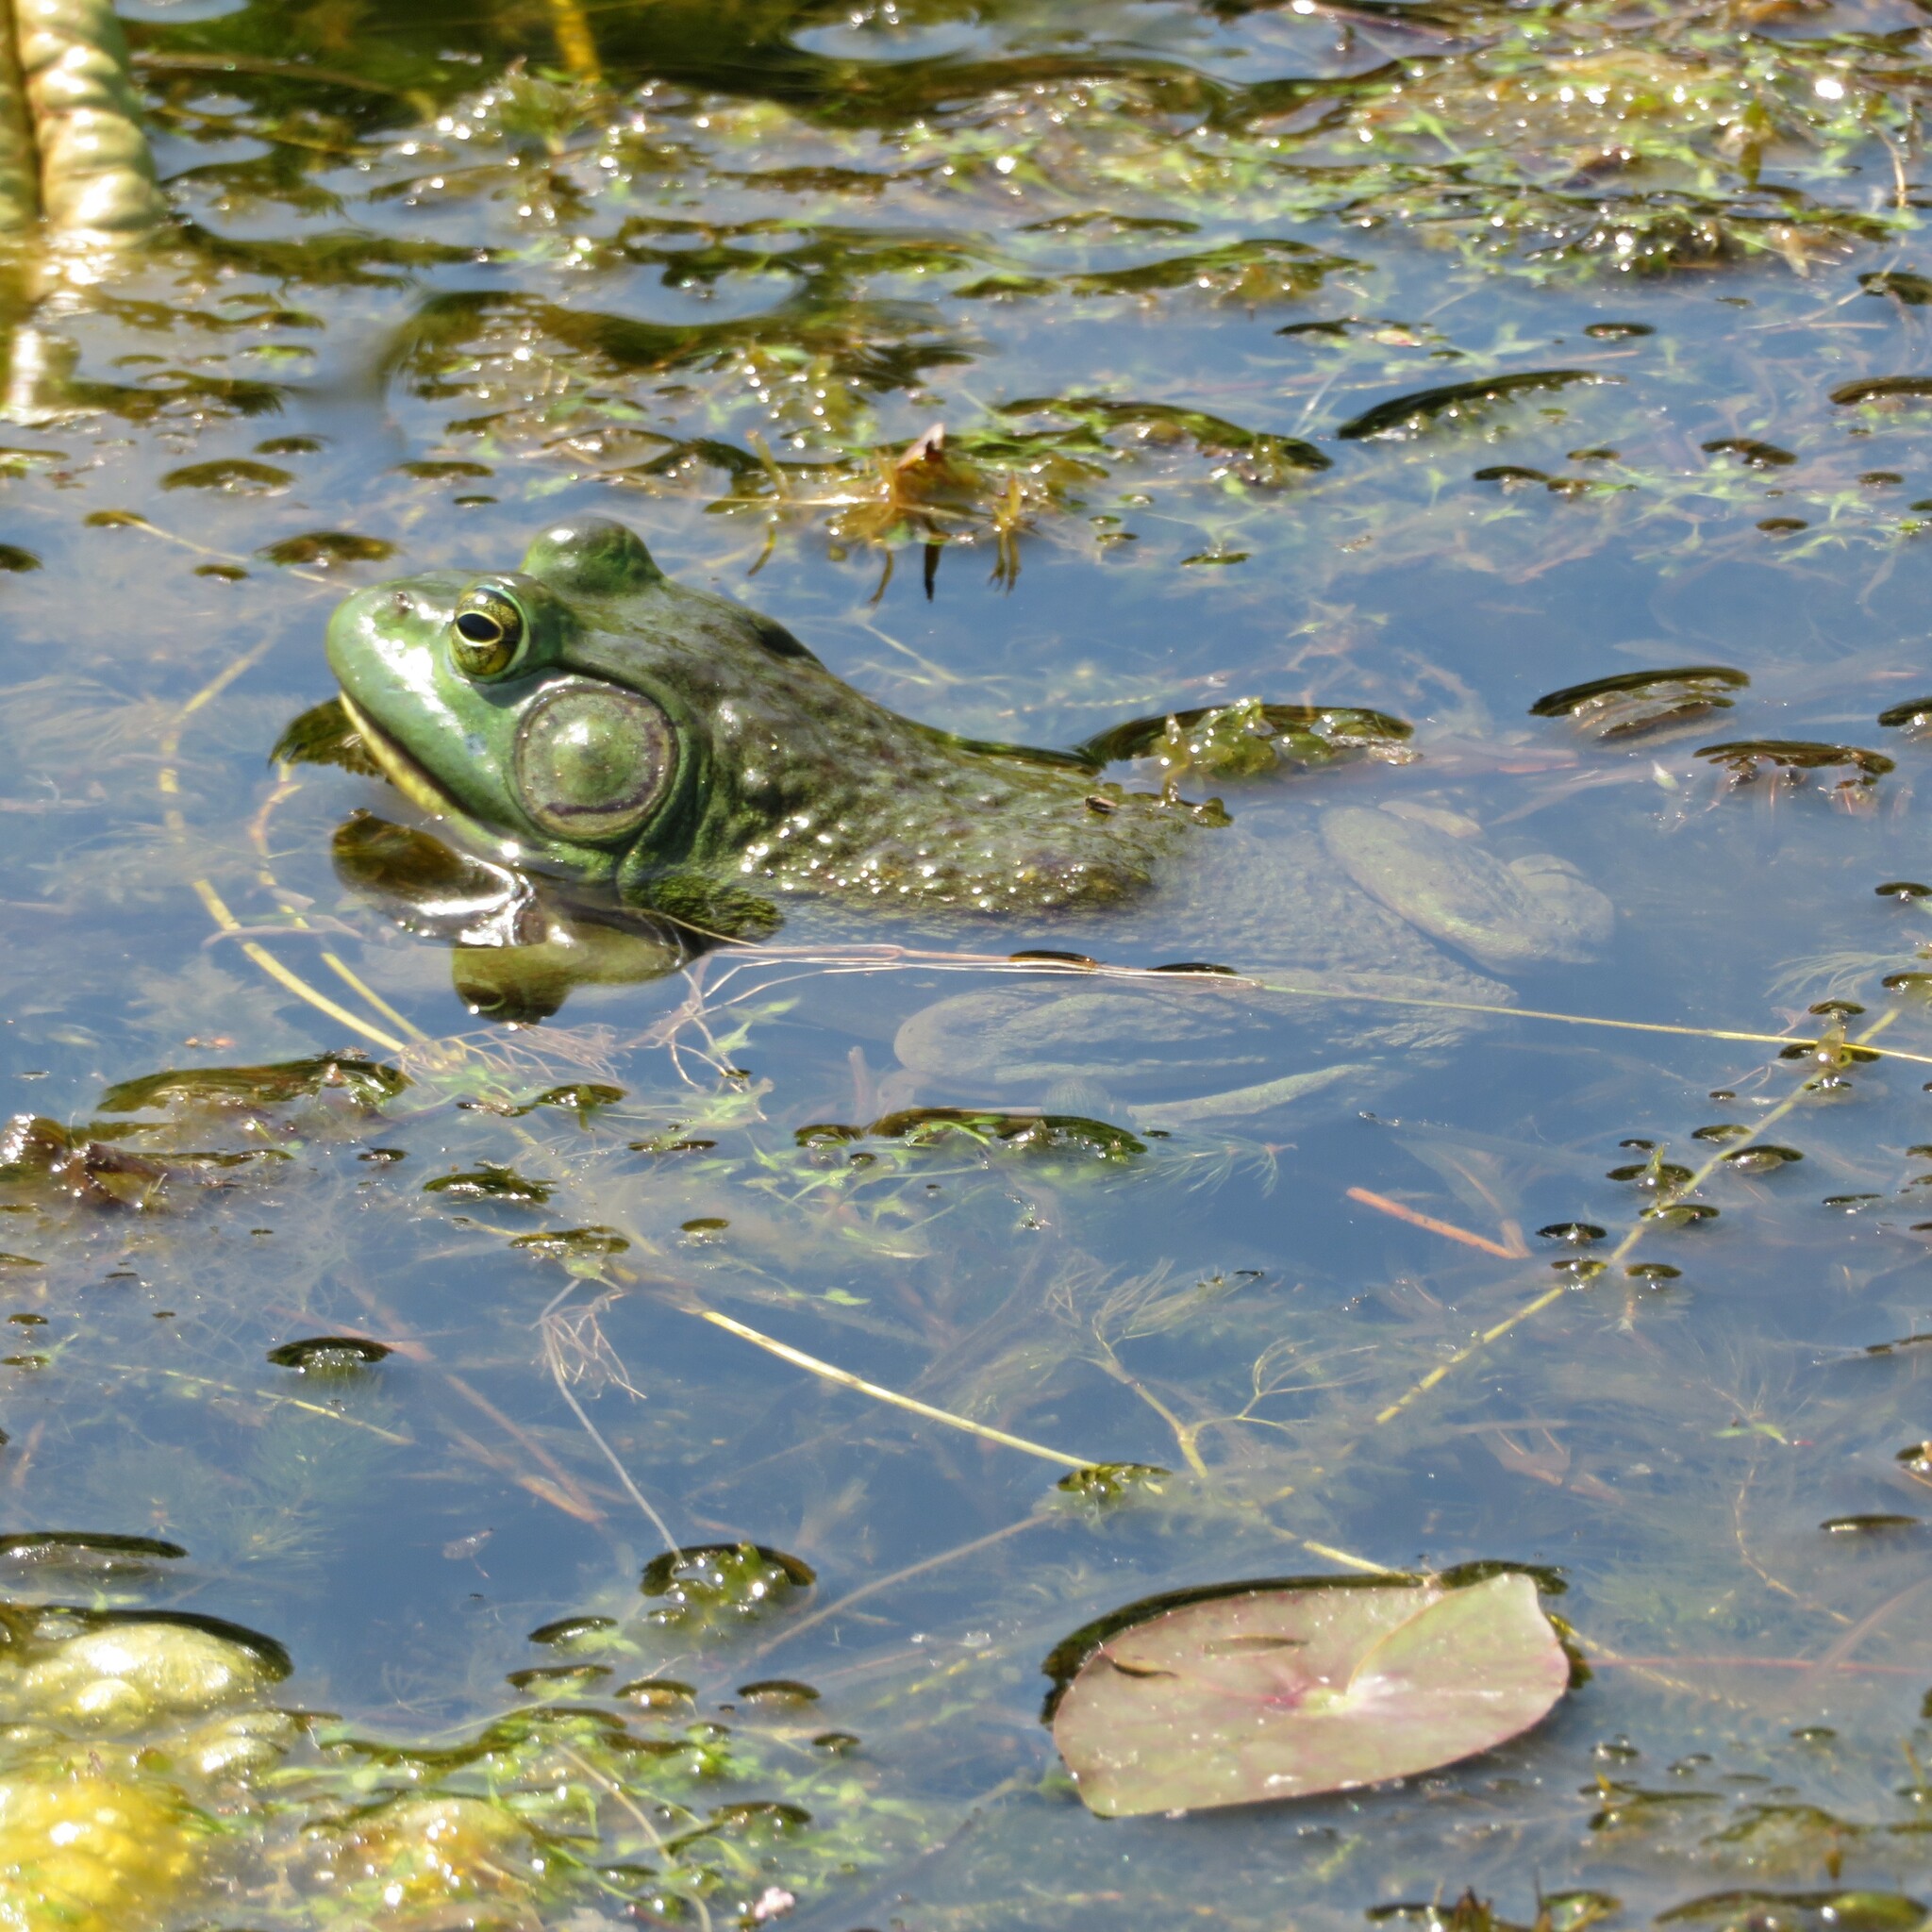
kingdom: Animalia
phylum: Chordata
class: Amphibia
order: Anura
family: Ranidae
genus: Lithobates
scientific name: Lithobates catesbeianus
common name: American bullfrog
